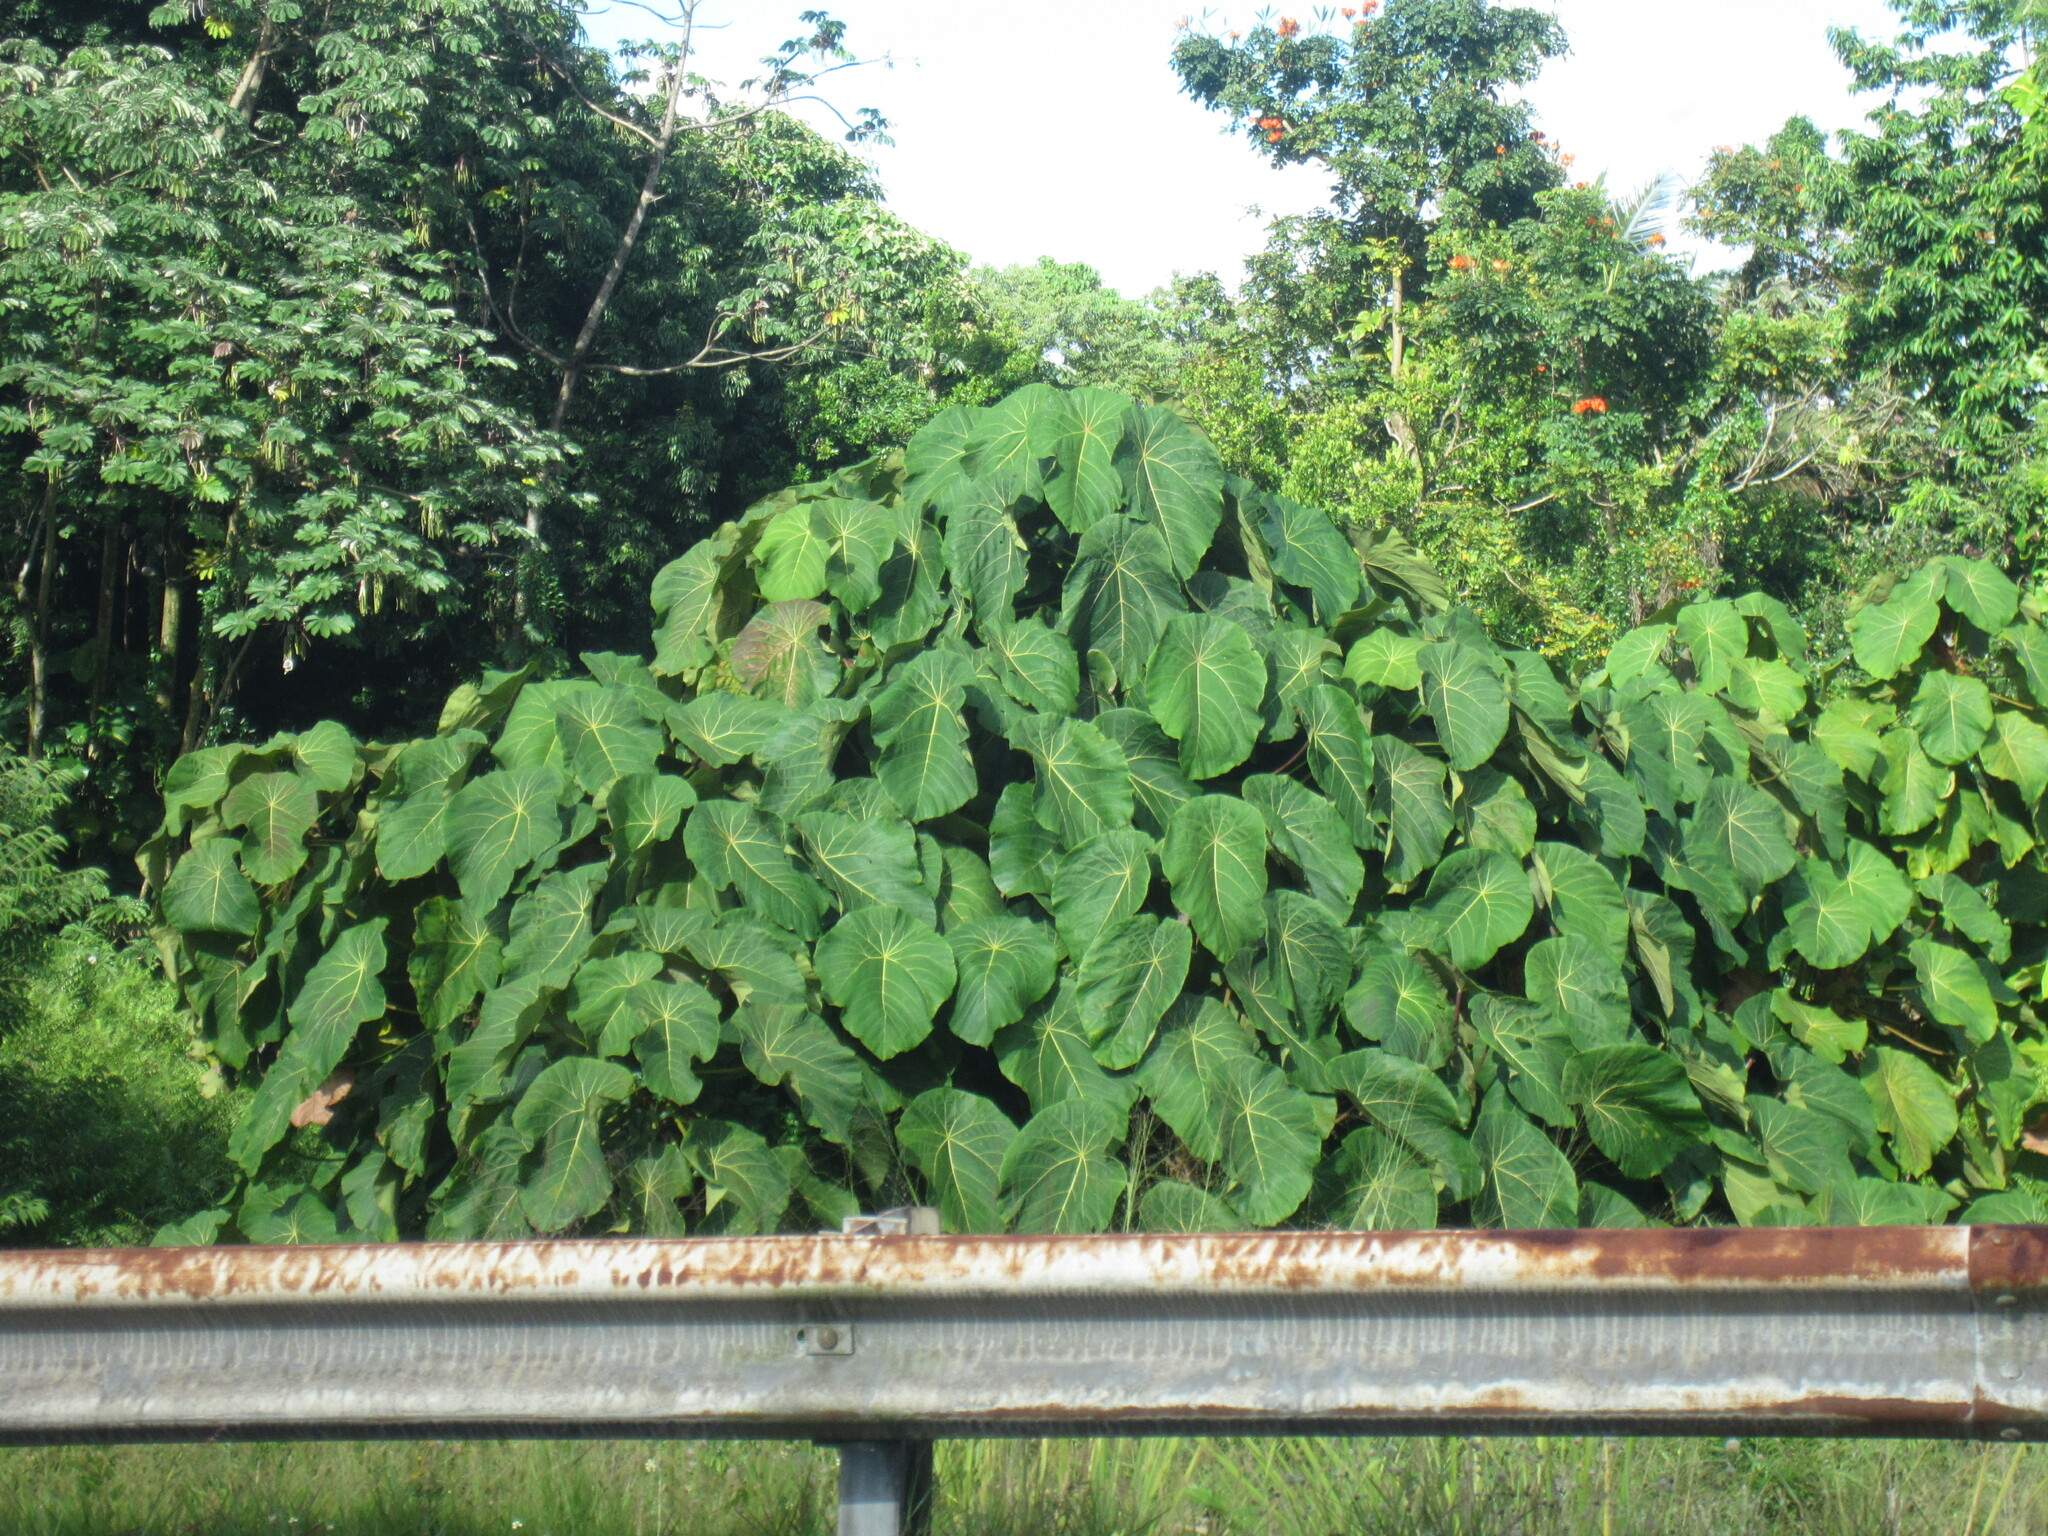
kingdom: Plantae
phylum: Tracheophyta
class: Magnoliopsida
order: Malpighiales
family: Euphorbiaceae
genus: Macaranga
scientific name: Macaranga mappa
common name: Pengua
